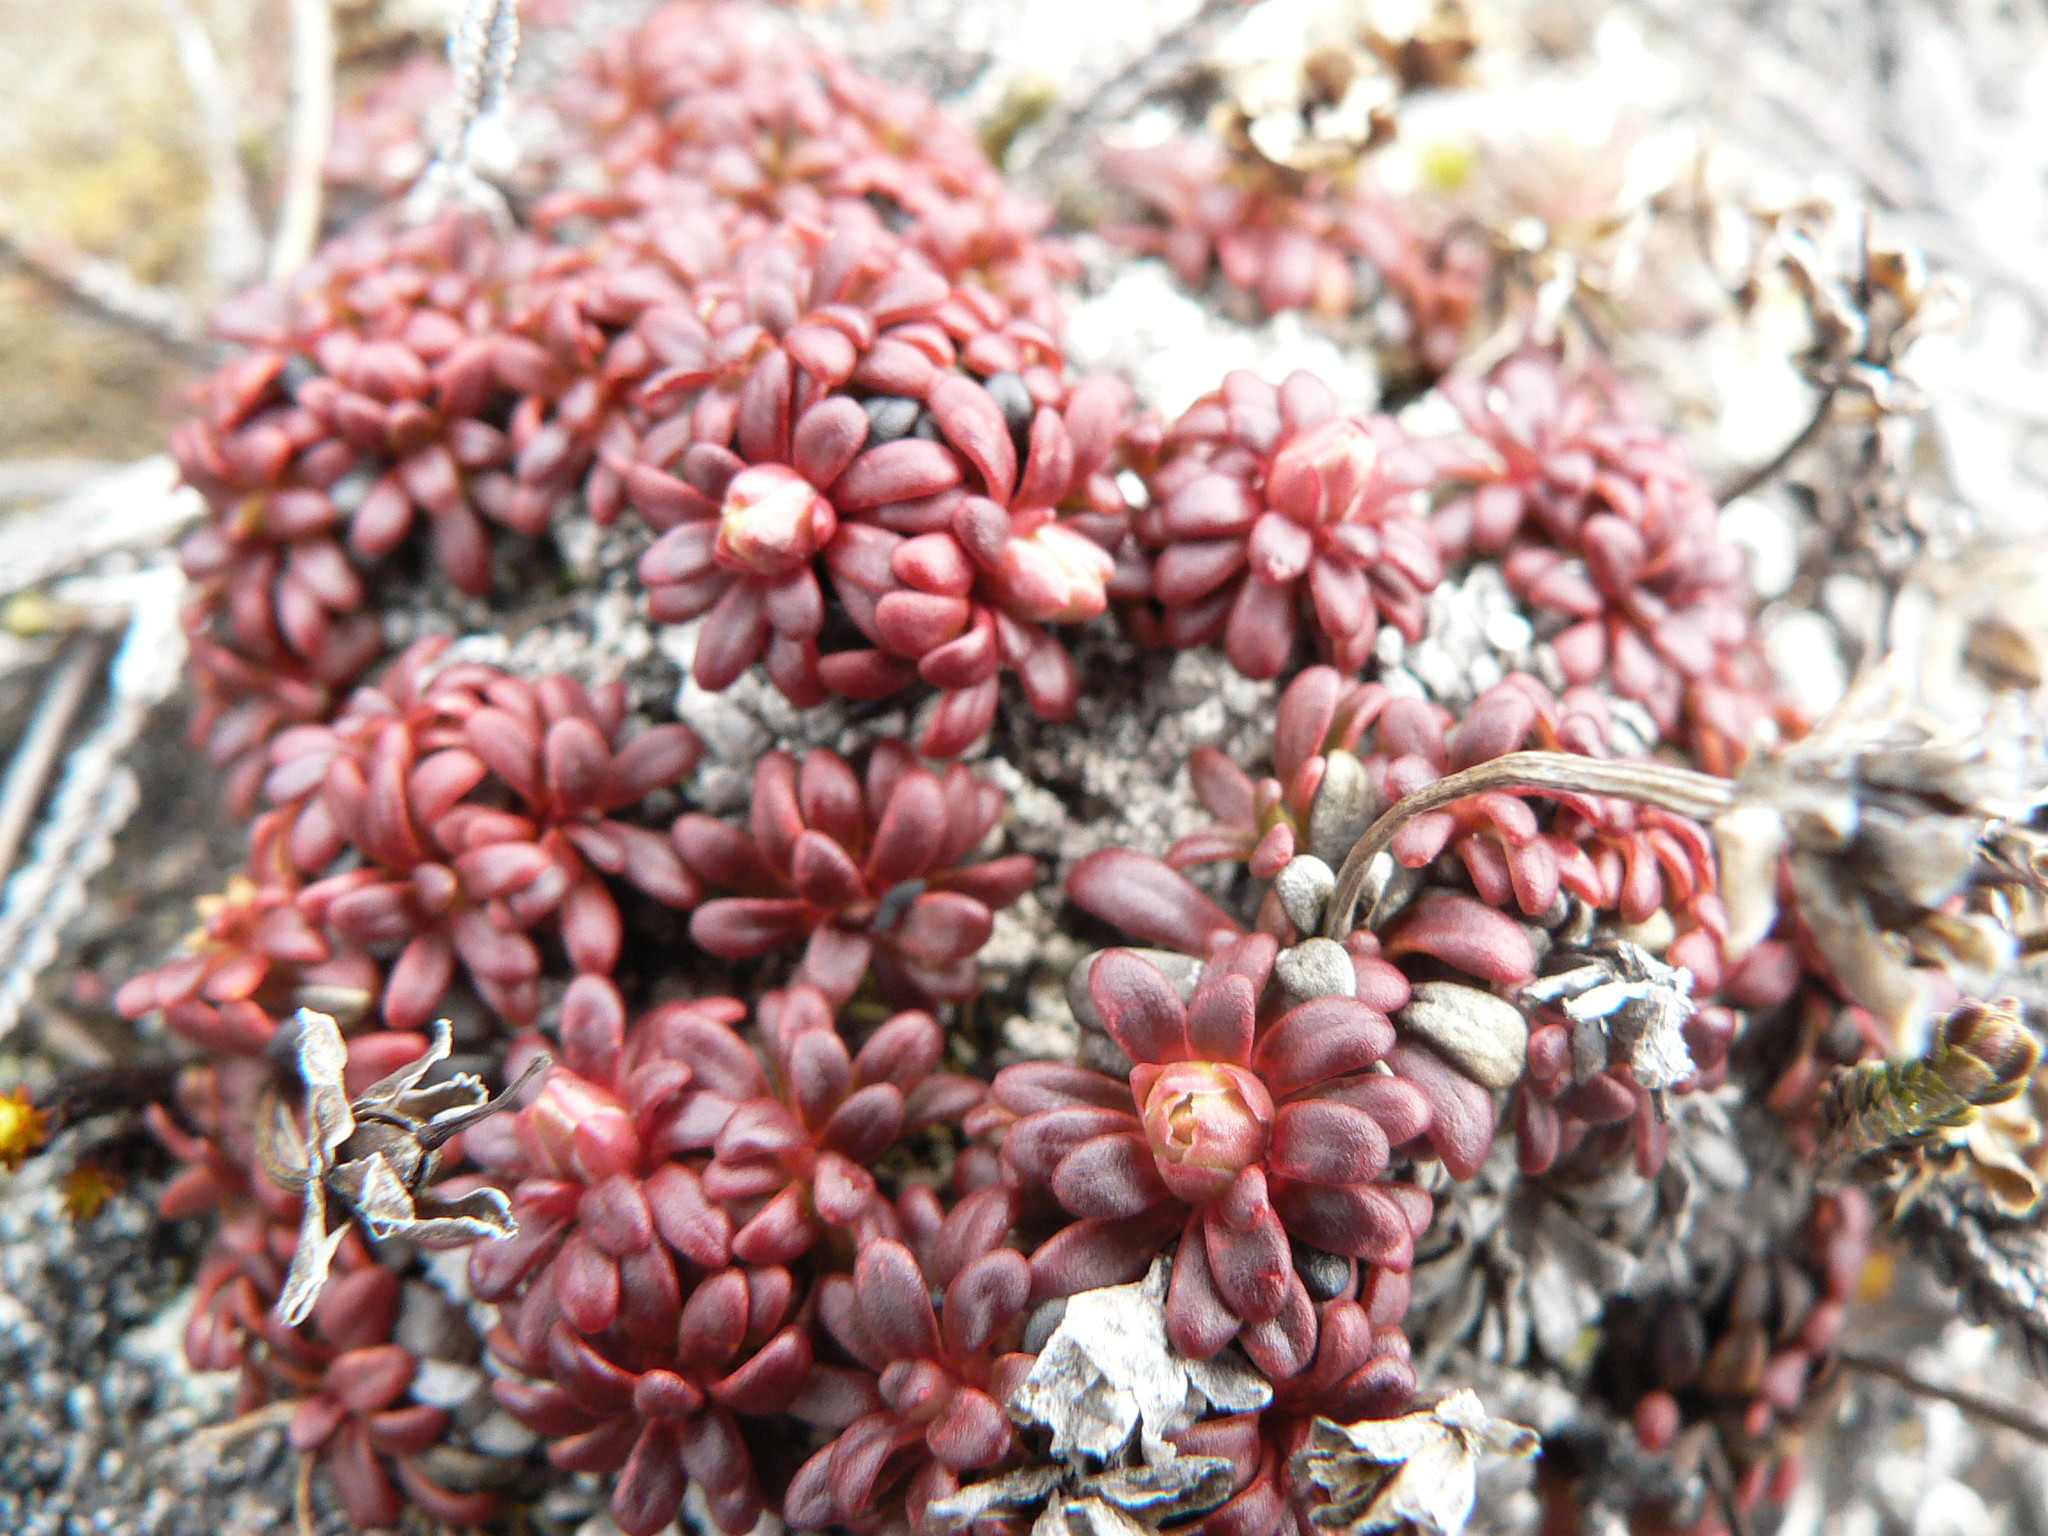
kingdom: Plantae
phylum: Tracheophyta
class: Magnoliopsida
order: Ericales
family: Diapensiaceae
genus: Diapensia
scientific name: Diapensia lapponica
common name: Diapensia
